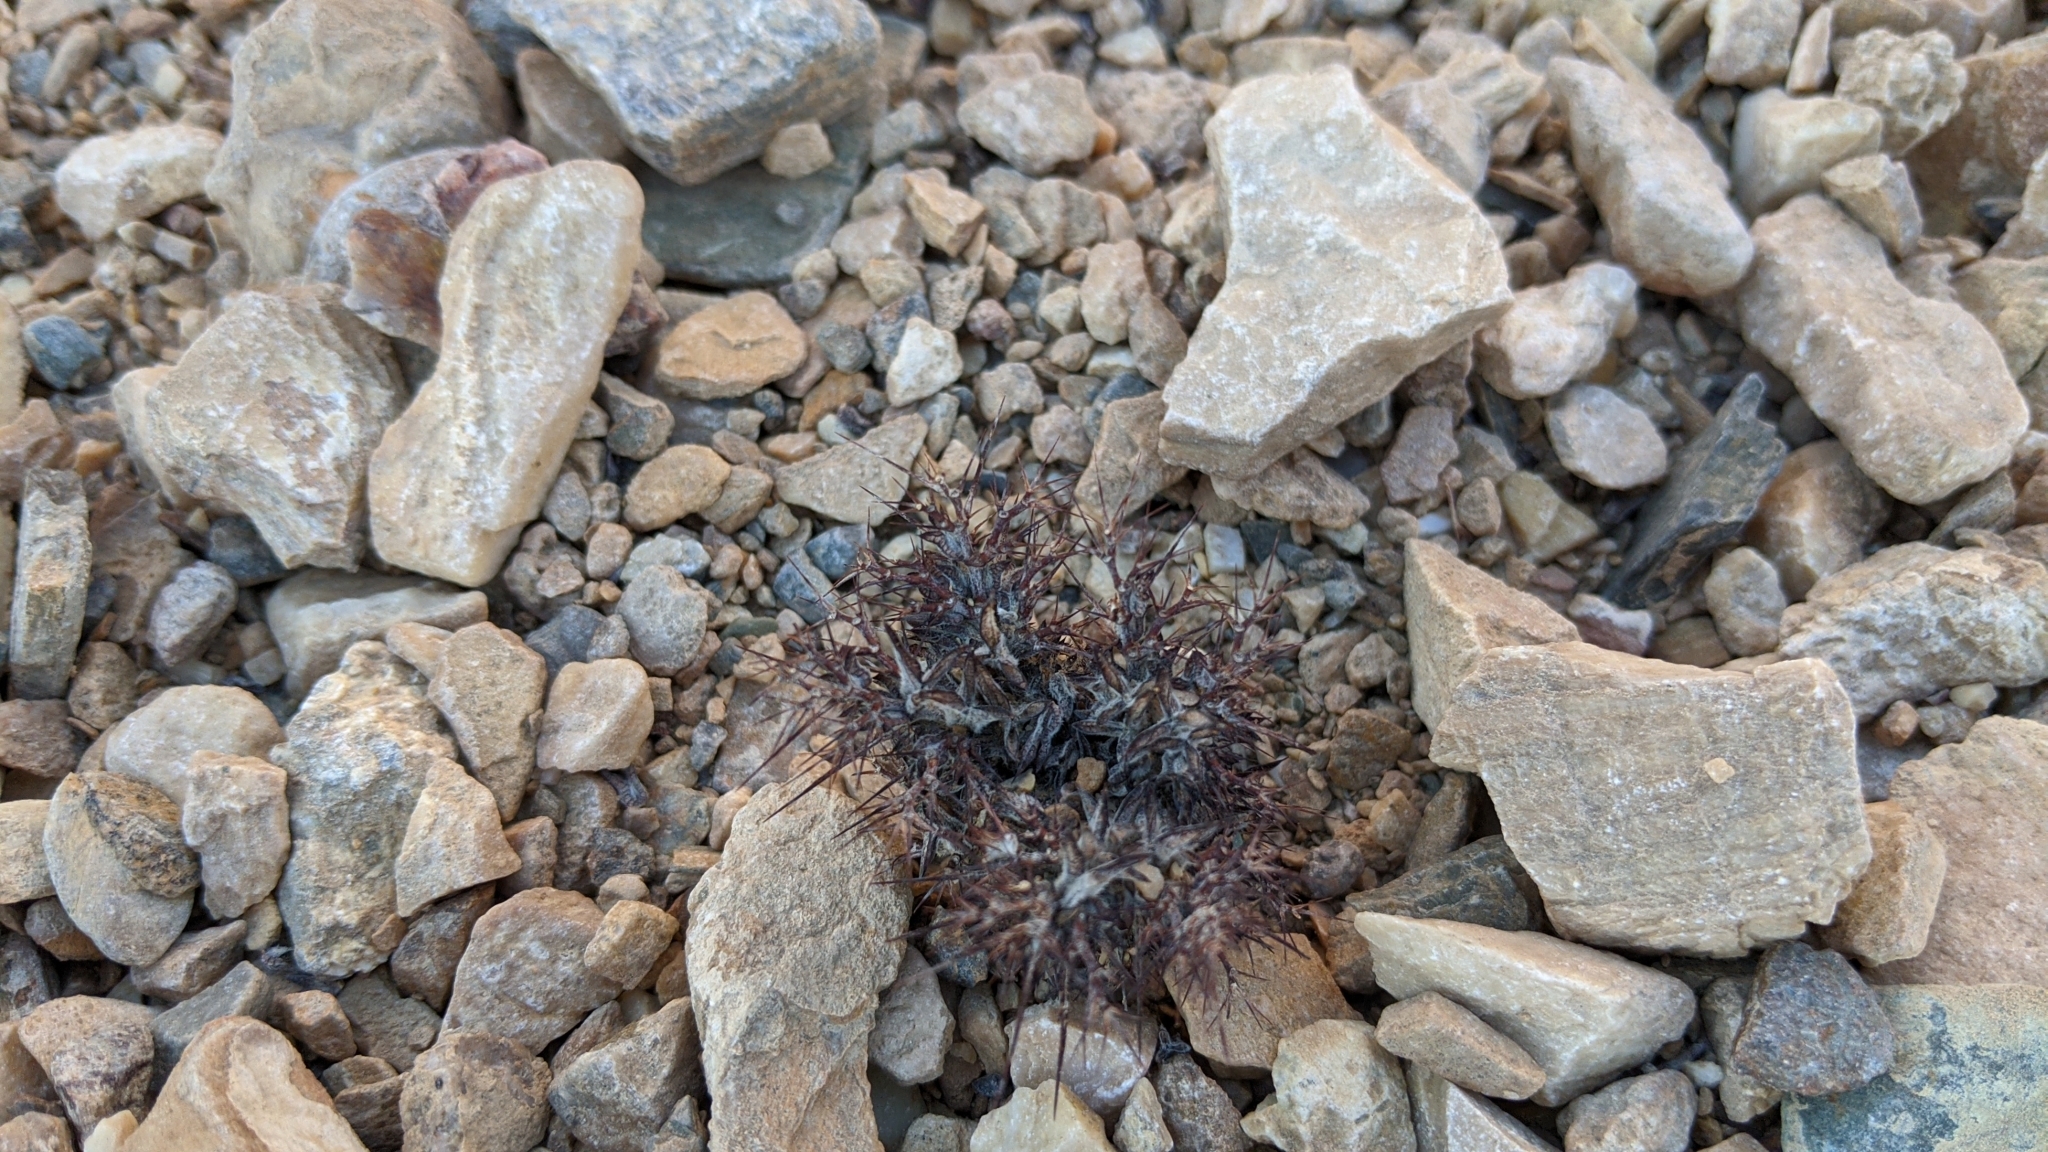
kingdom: Plantae
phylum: Tracheophyta
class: Magnoliopsida
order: Caryophyllales
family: Polygonaceae
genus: Chorizanthe
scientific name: Chorizanthe rigida
